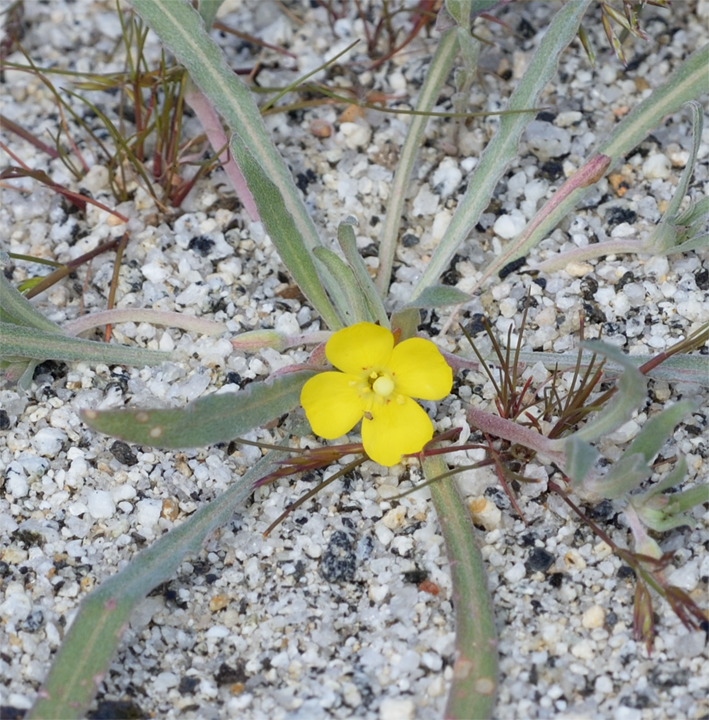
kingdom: Plantae
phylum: Tracheophyta
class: Magnoliopsida
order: Myrtales
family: Onagraceae
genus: Camissoniopsis
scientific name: Camissoniopsis pallida
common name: Paleyellow suncup
